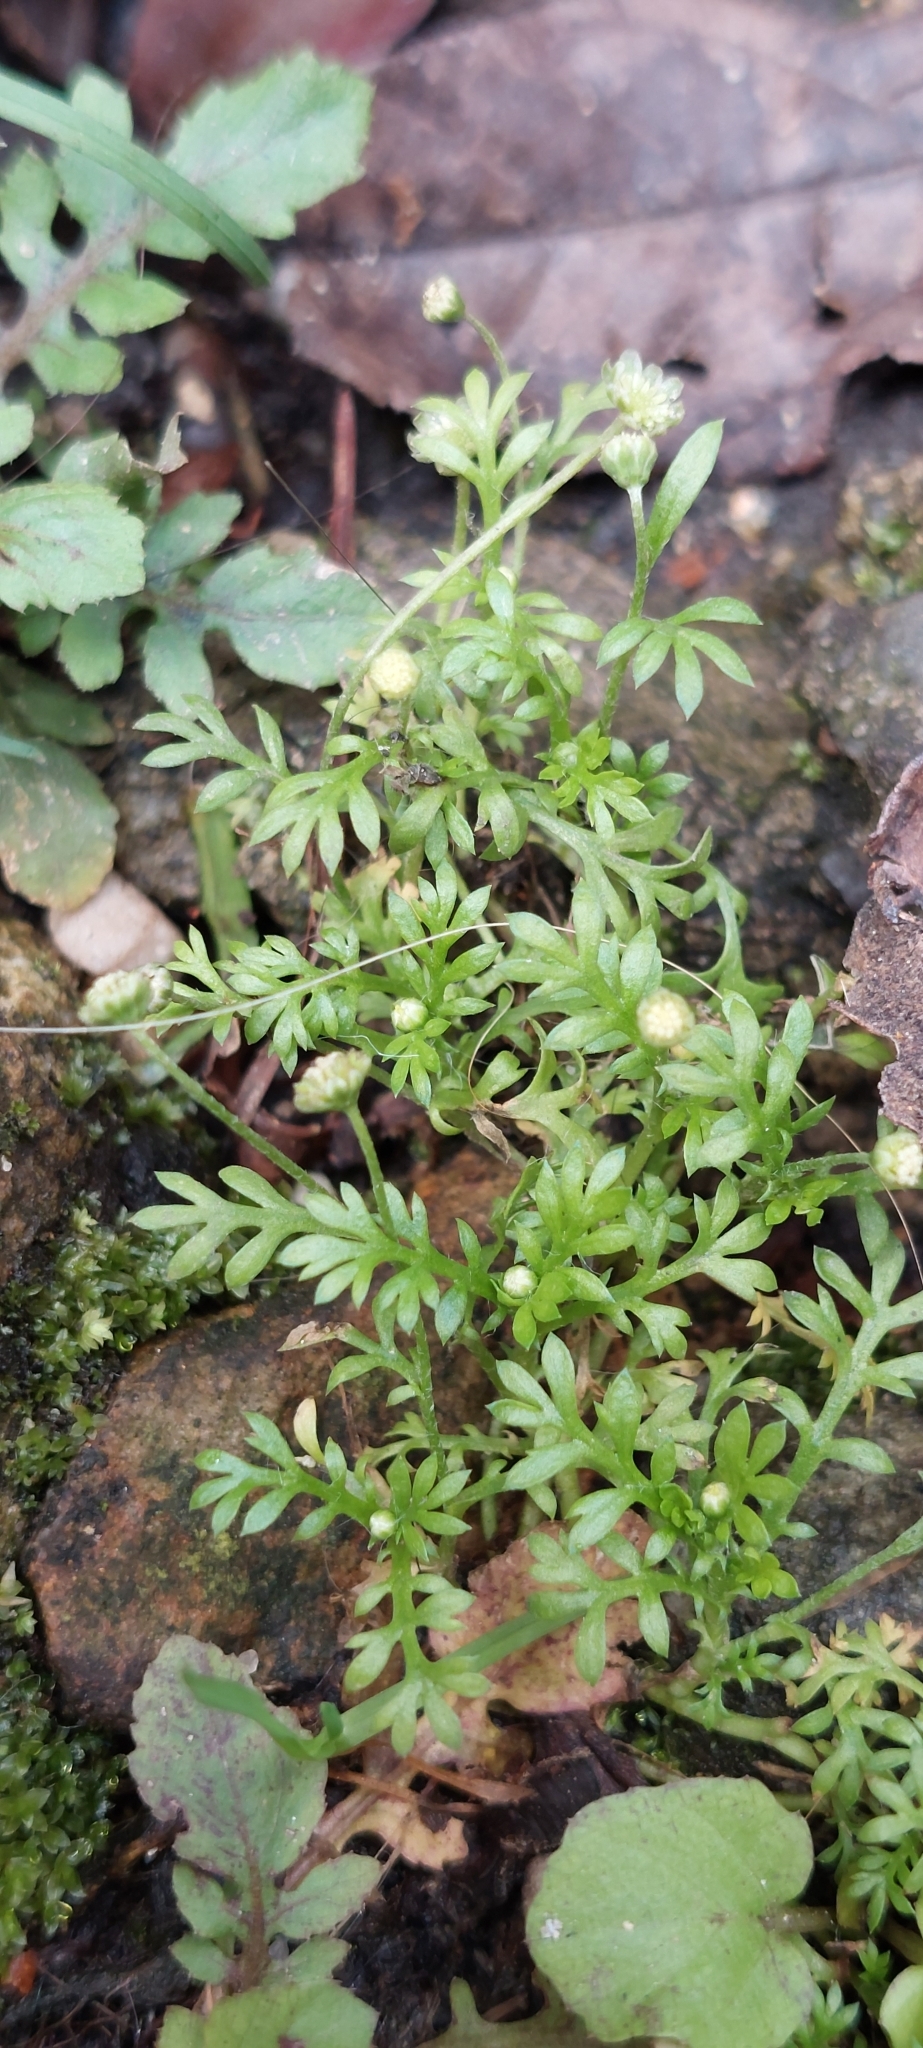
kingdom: Plantae
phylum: Tracheophyta
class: Magnoliopsida
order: Asterales
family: Asteraceae
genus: Cotula
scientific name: Cotula australis
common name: Australian waterbuttons
